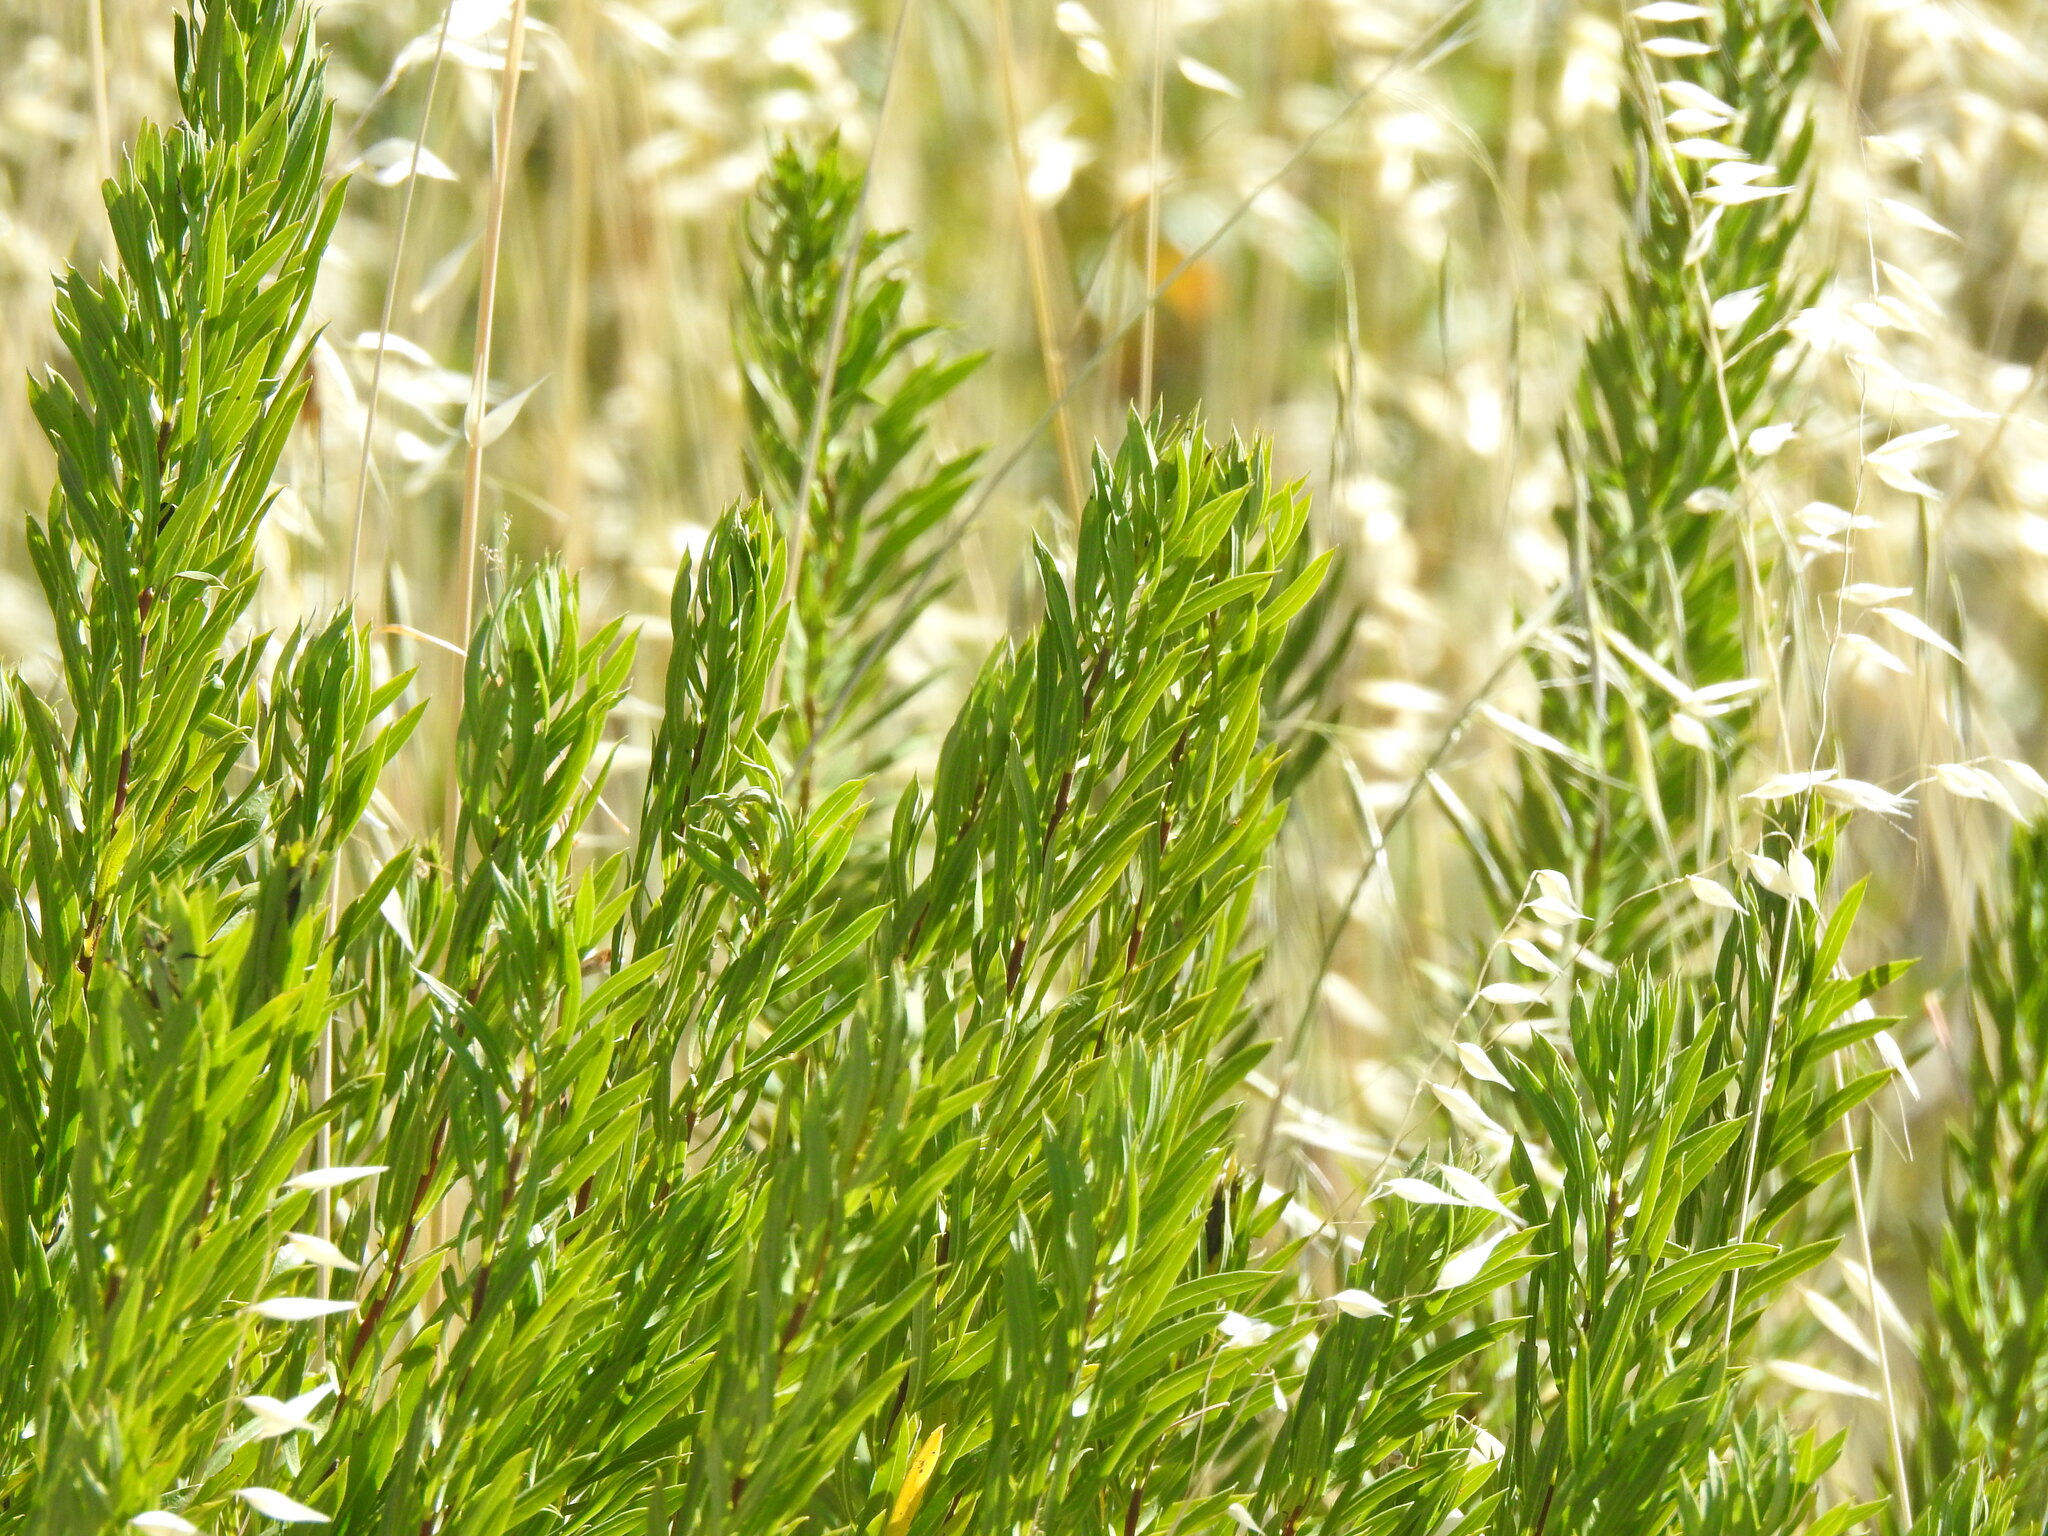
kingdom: Plantae
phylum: Tracheophyta
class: Magnoliopsida
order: Malvales
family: Thymelaeaceae
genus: Daphne
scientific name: Daphne gnidium
